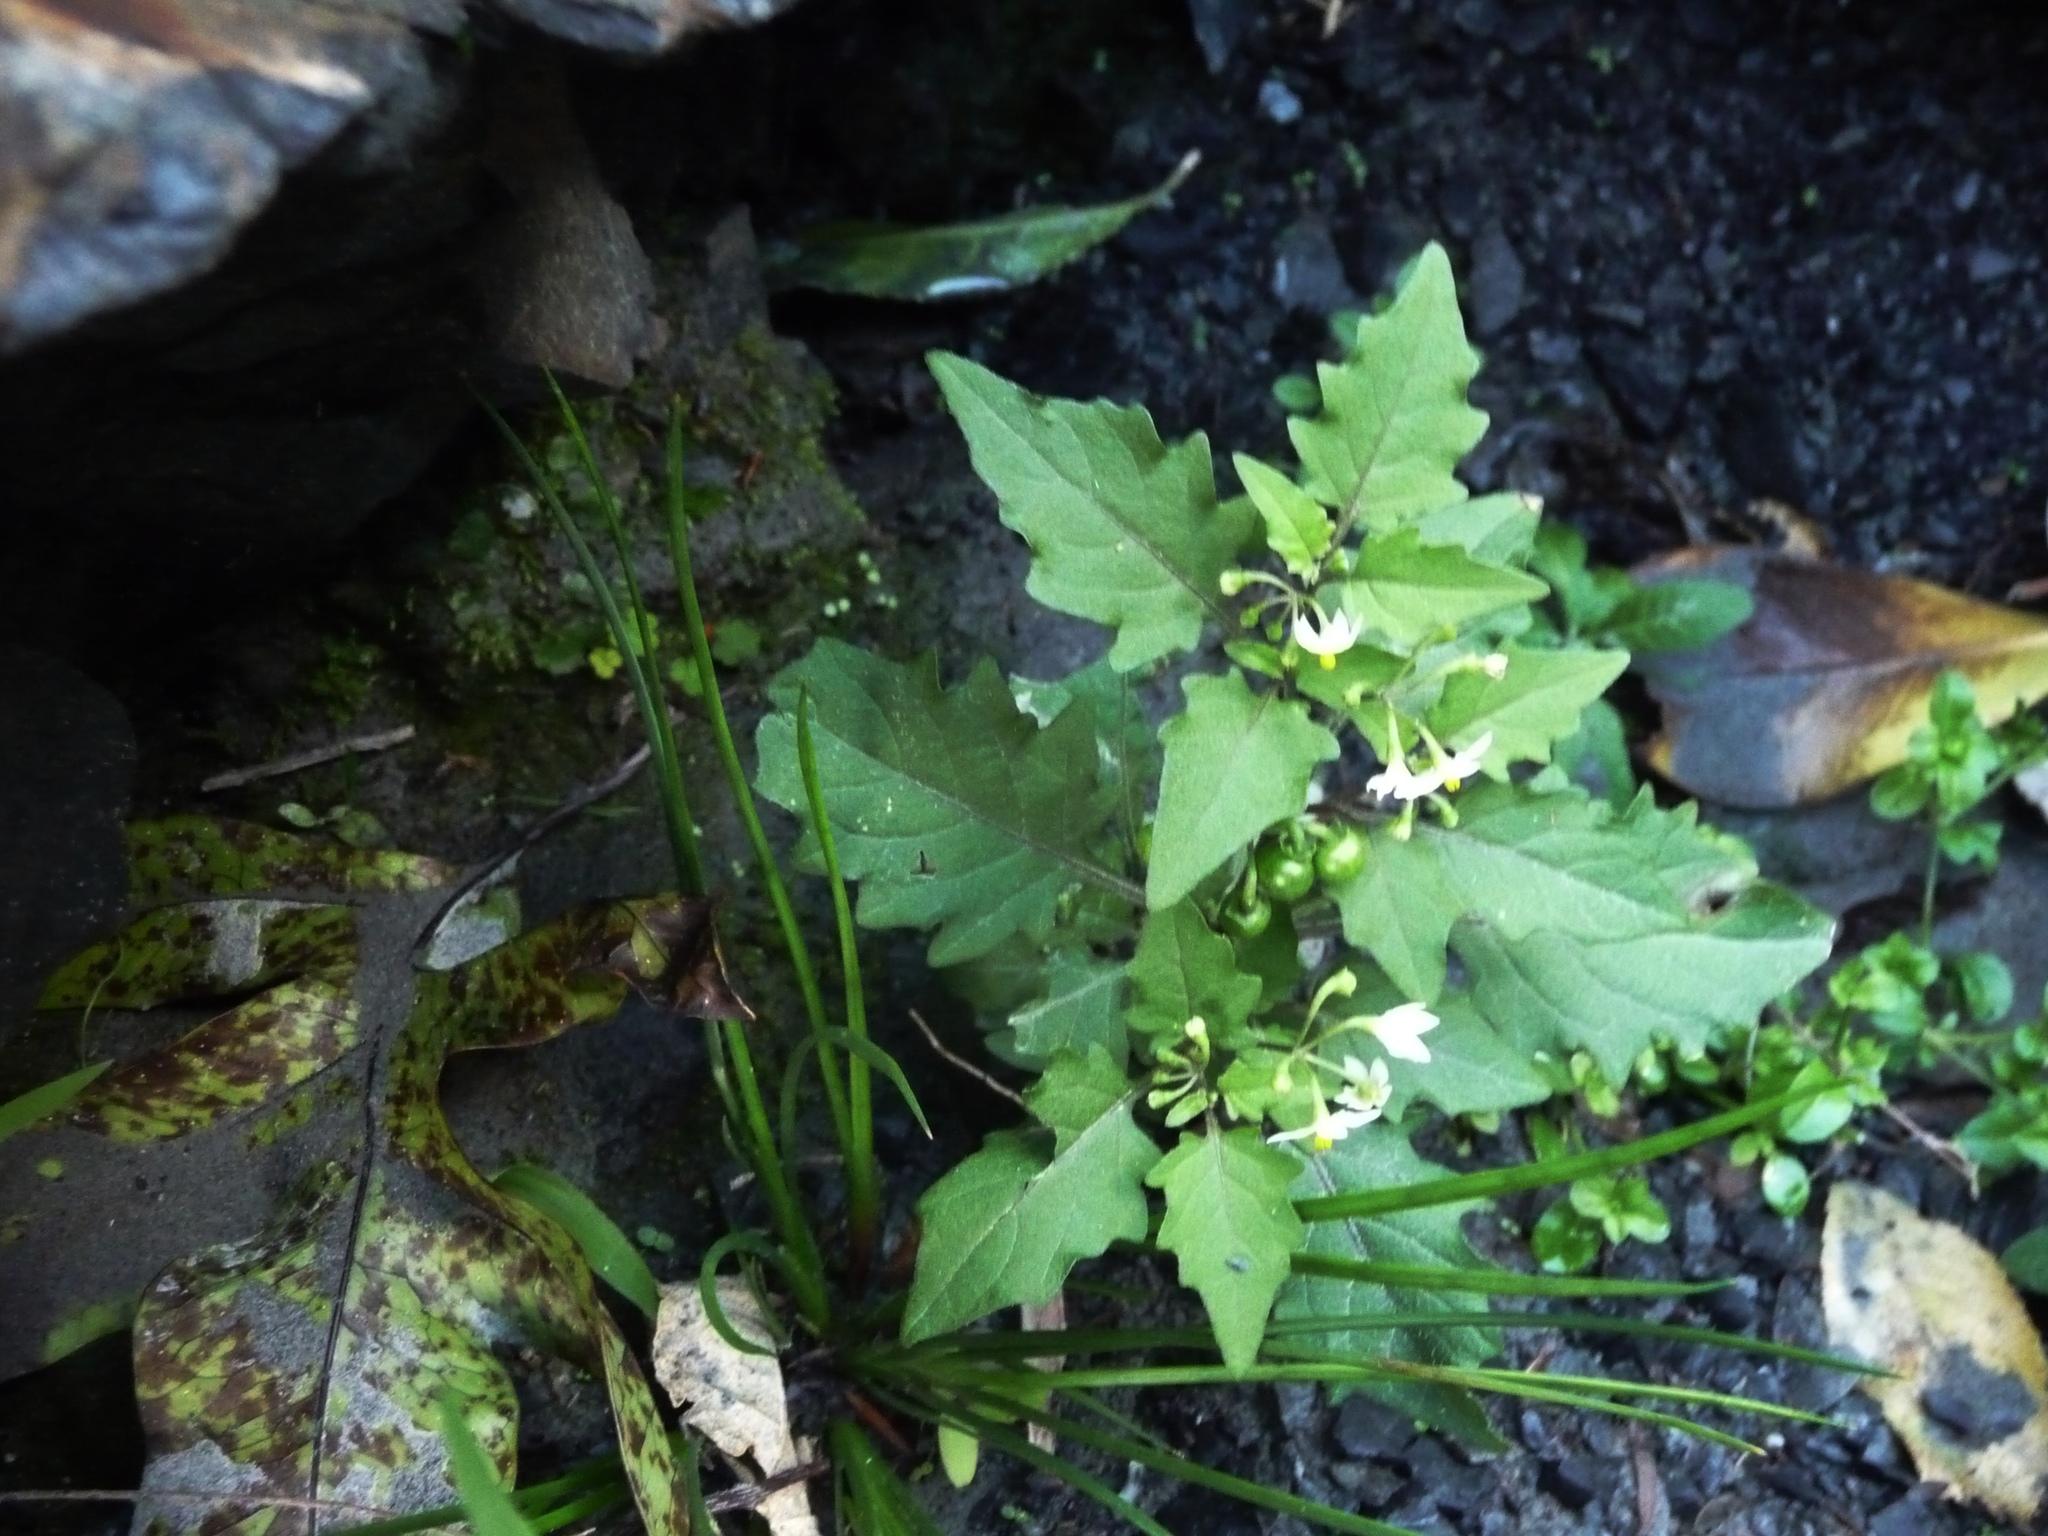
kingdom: Plantae
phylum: Tracheophyta
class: Magnoliopsida
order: Solanales
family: Solanaceae
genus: Solanum
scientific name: Solanum americanum
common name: American black nightshade
